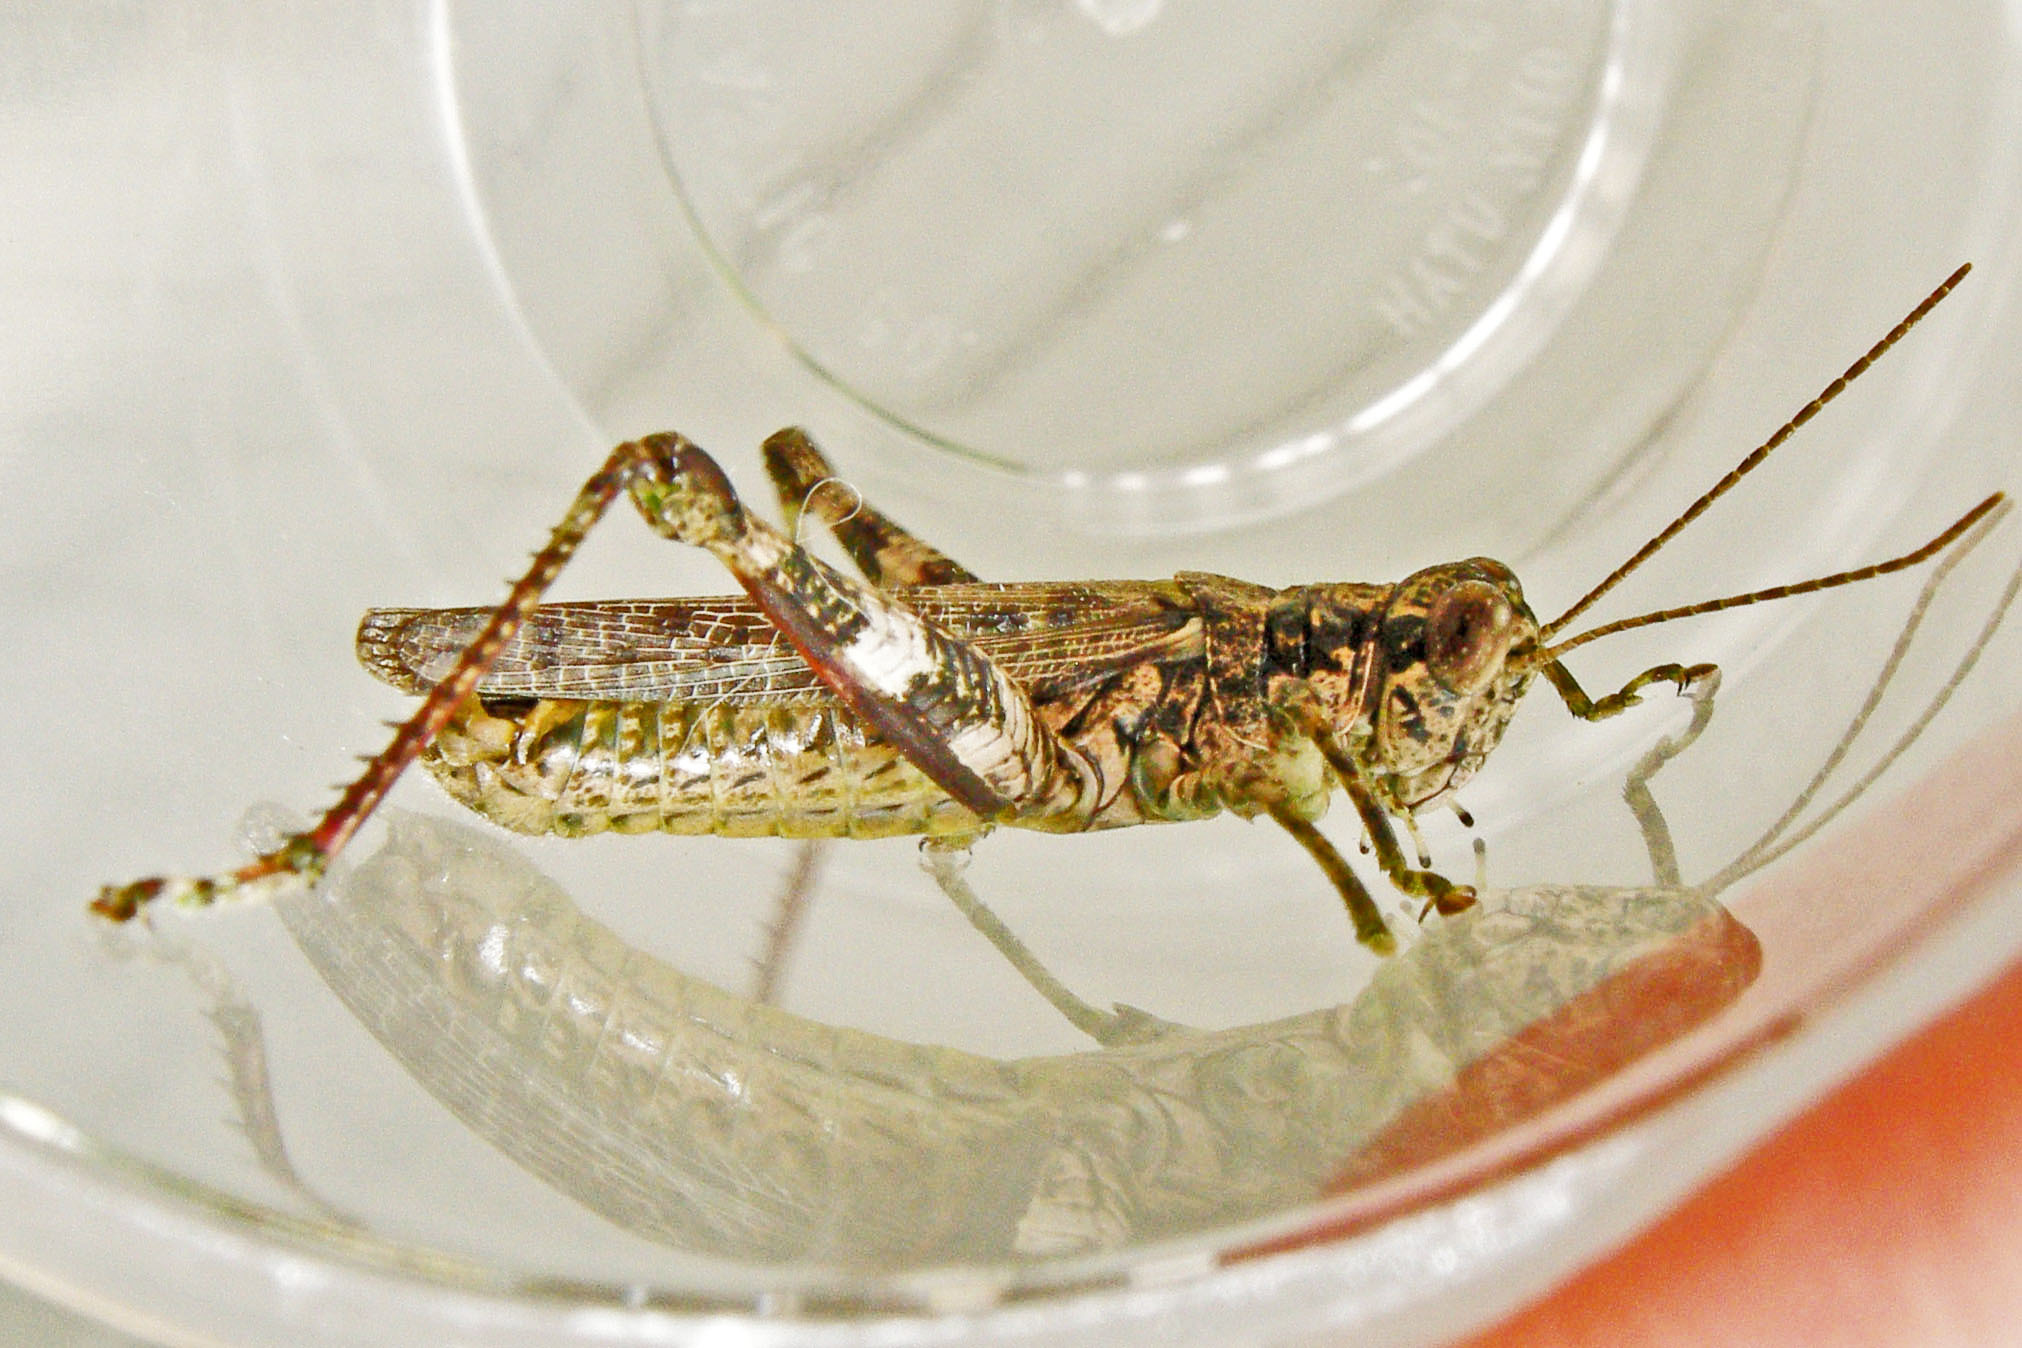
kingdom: Animalia
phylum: Arthropoda
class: Insecta
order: Orthoptera
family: Acrididae
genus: Melanoplus
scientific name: Melanoplus punctulatus
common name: Pine-tree spur-throat grasshopper
